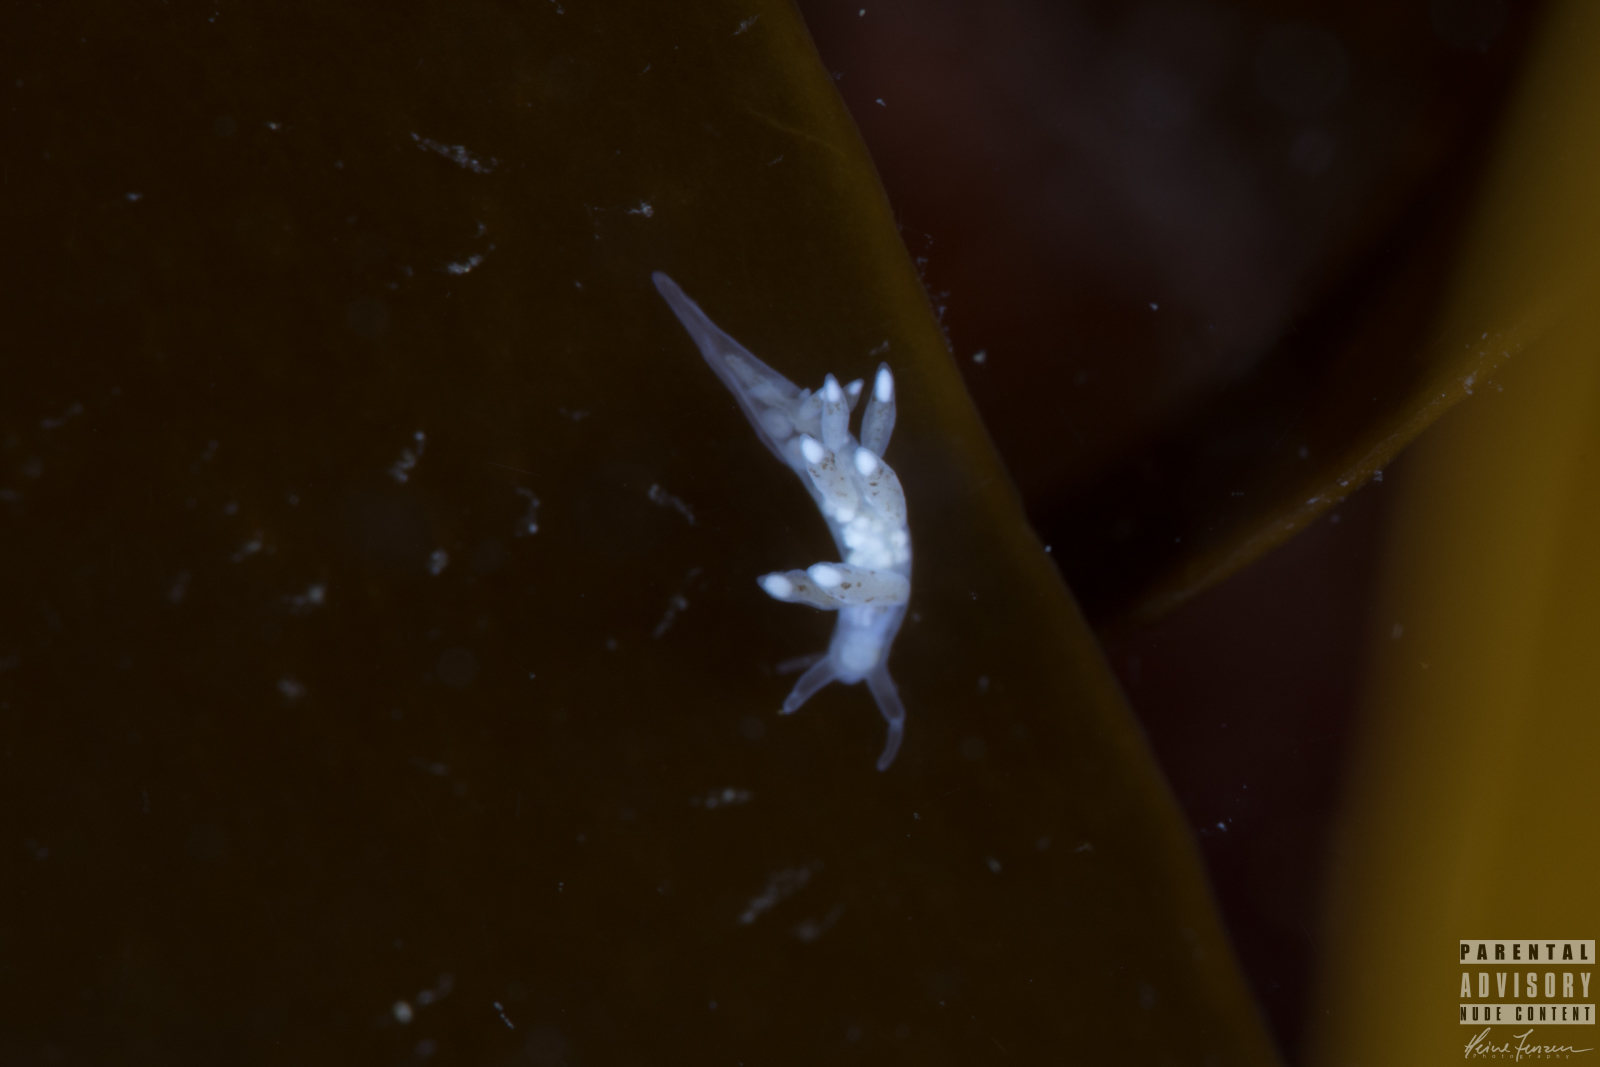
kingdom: Animalia
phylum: Mollusca
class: Gastropoda
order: Nudibranchia
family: Tergipedidae
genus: Tergipes
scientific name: Tergipes tergipes
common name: Johnston's balloon eolis
